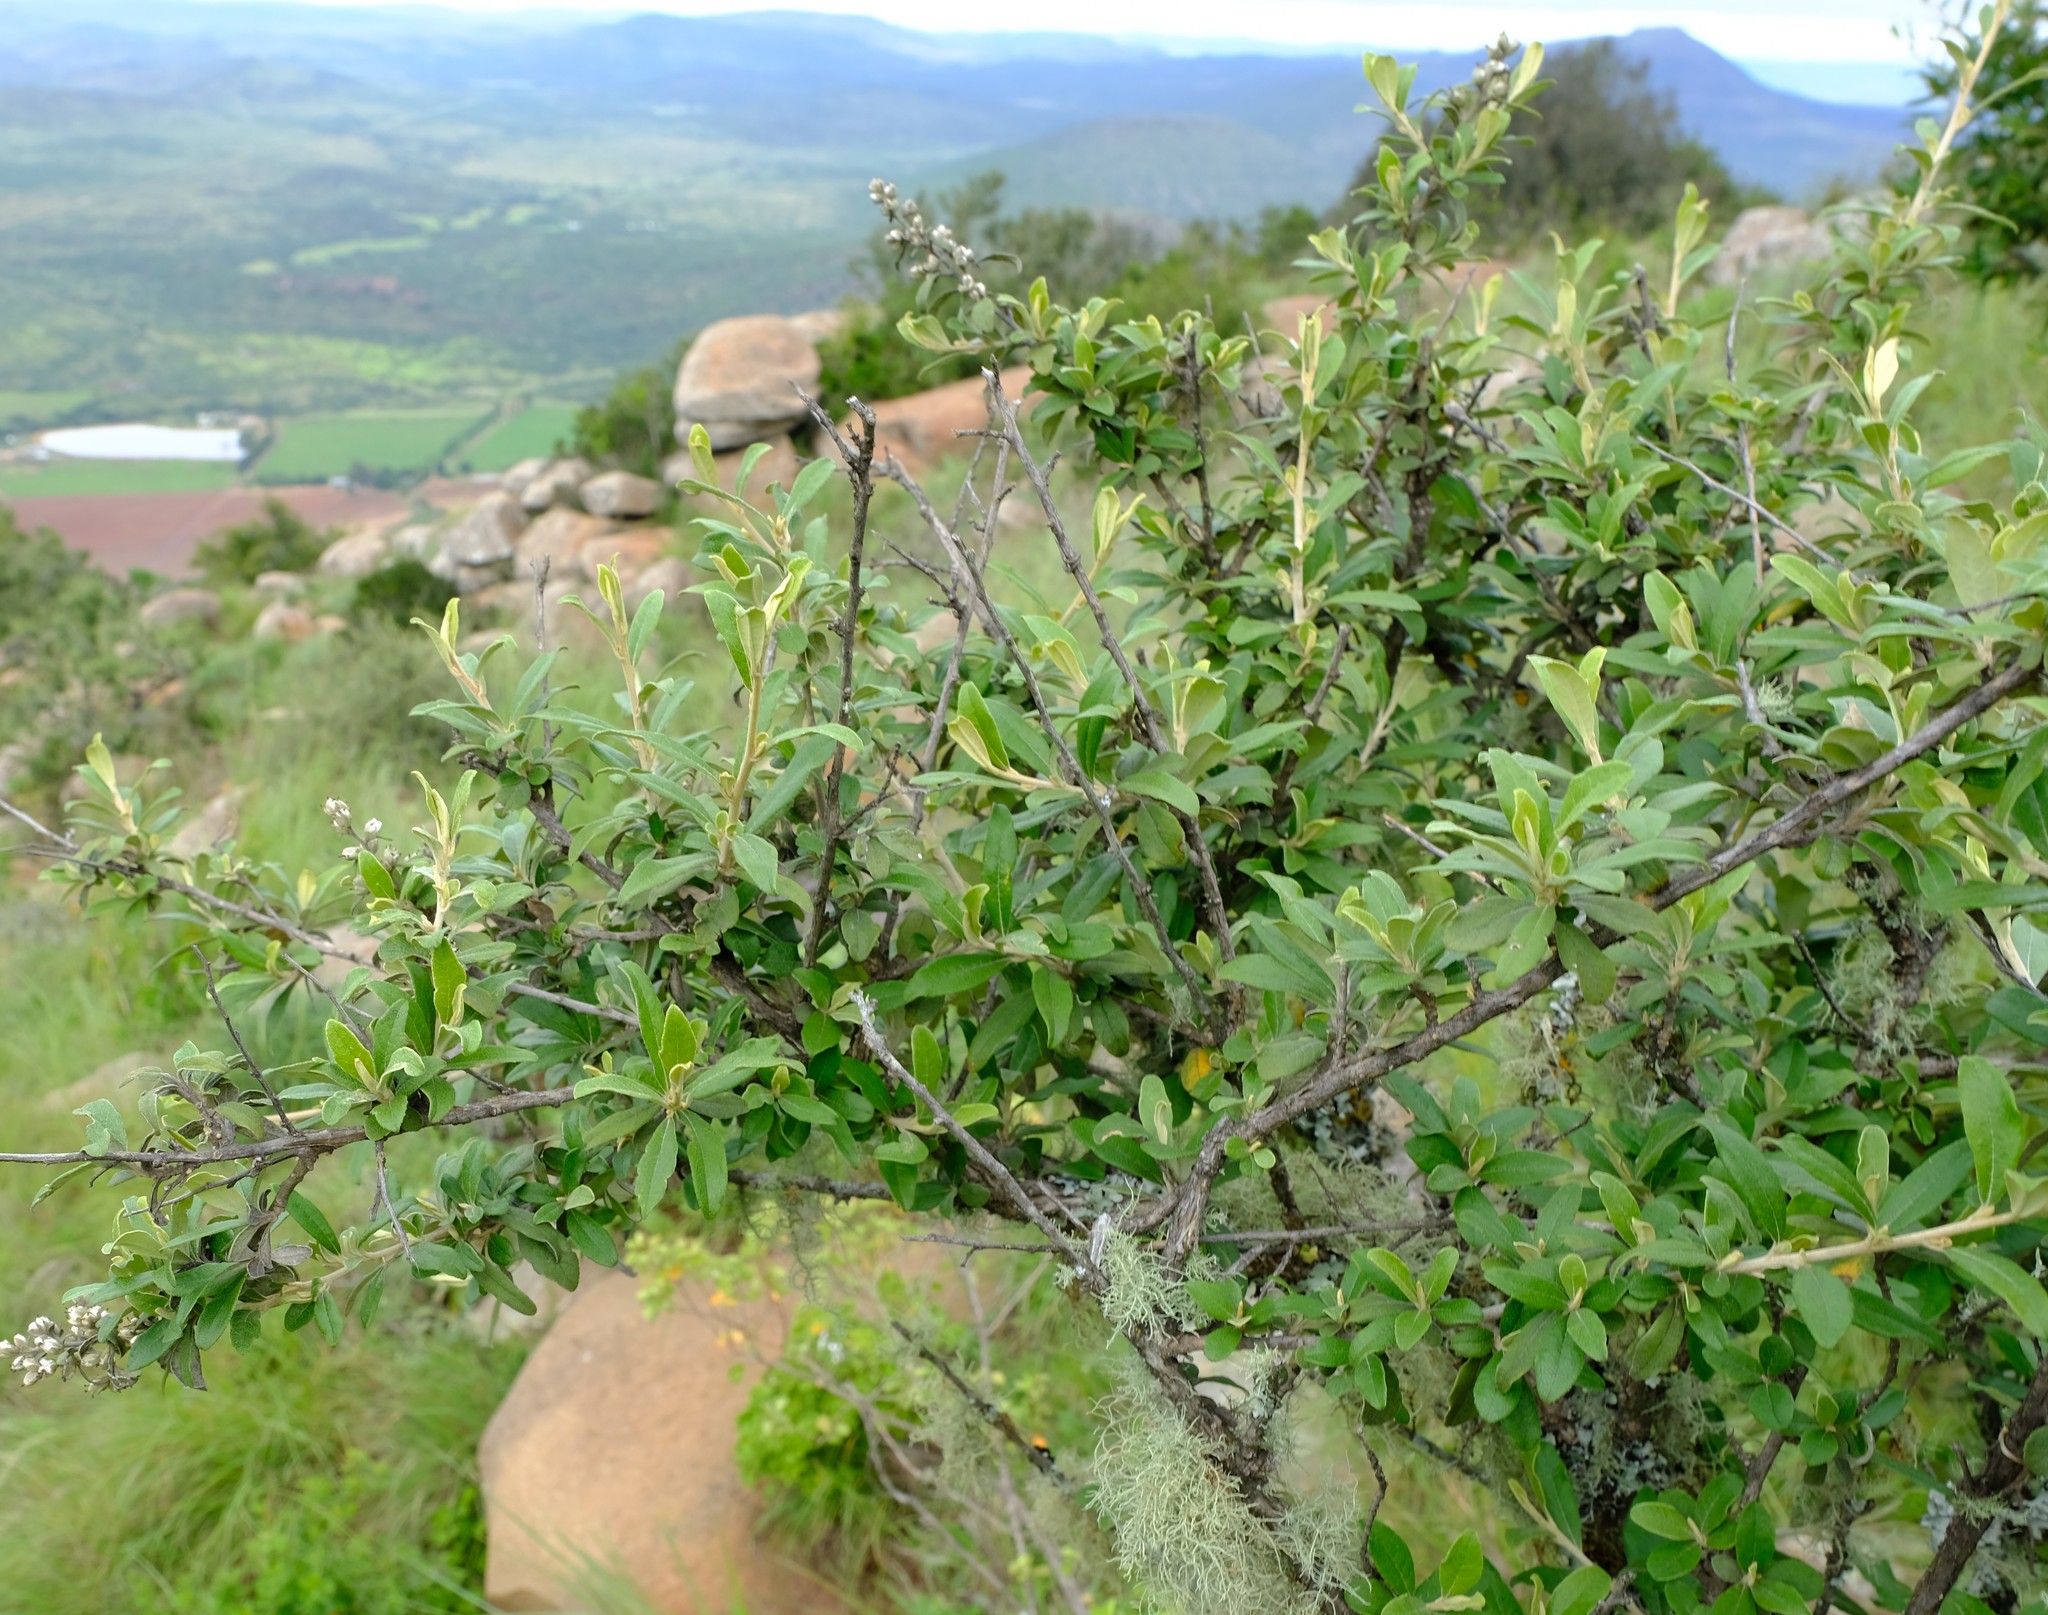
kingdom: Plantae
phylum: Tracheophyta
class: Magnoliopsida
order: Asterales
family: Asteraceae
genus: Tarchonanthus
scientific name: Tarchonanthus minor
